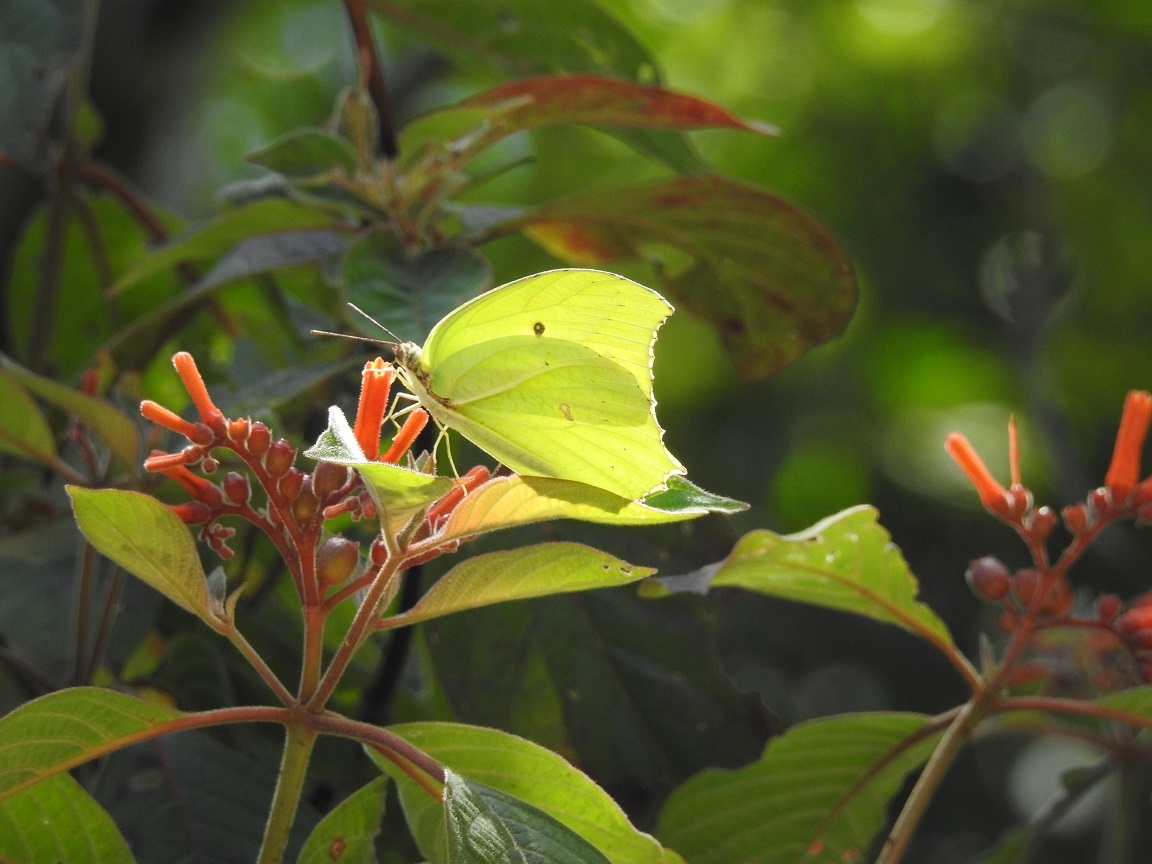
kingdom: Animalia
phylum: Arthropoda
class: Insecta
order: Lepidoptera
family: Pieridae
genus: Anteos
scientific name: Anteos maerula
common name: Angled sulphur
